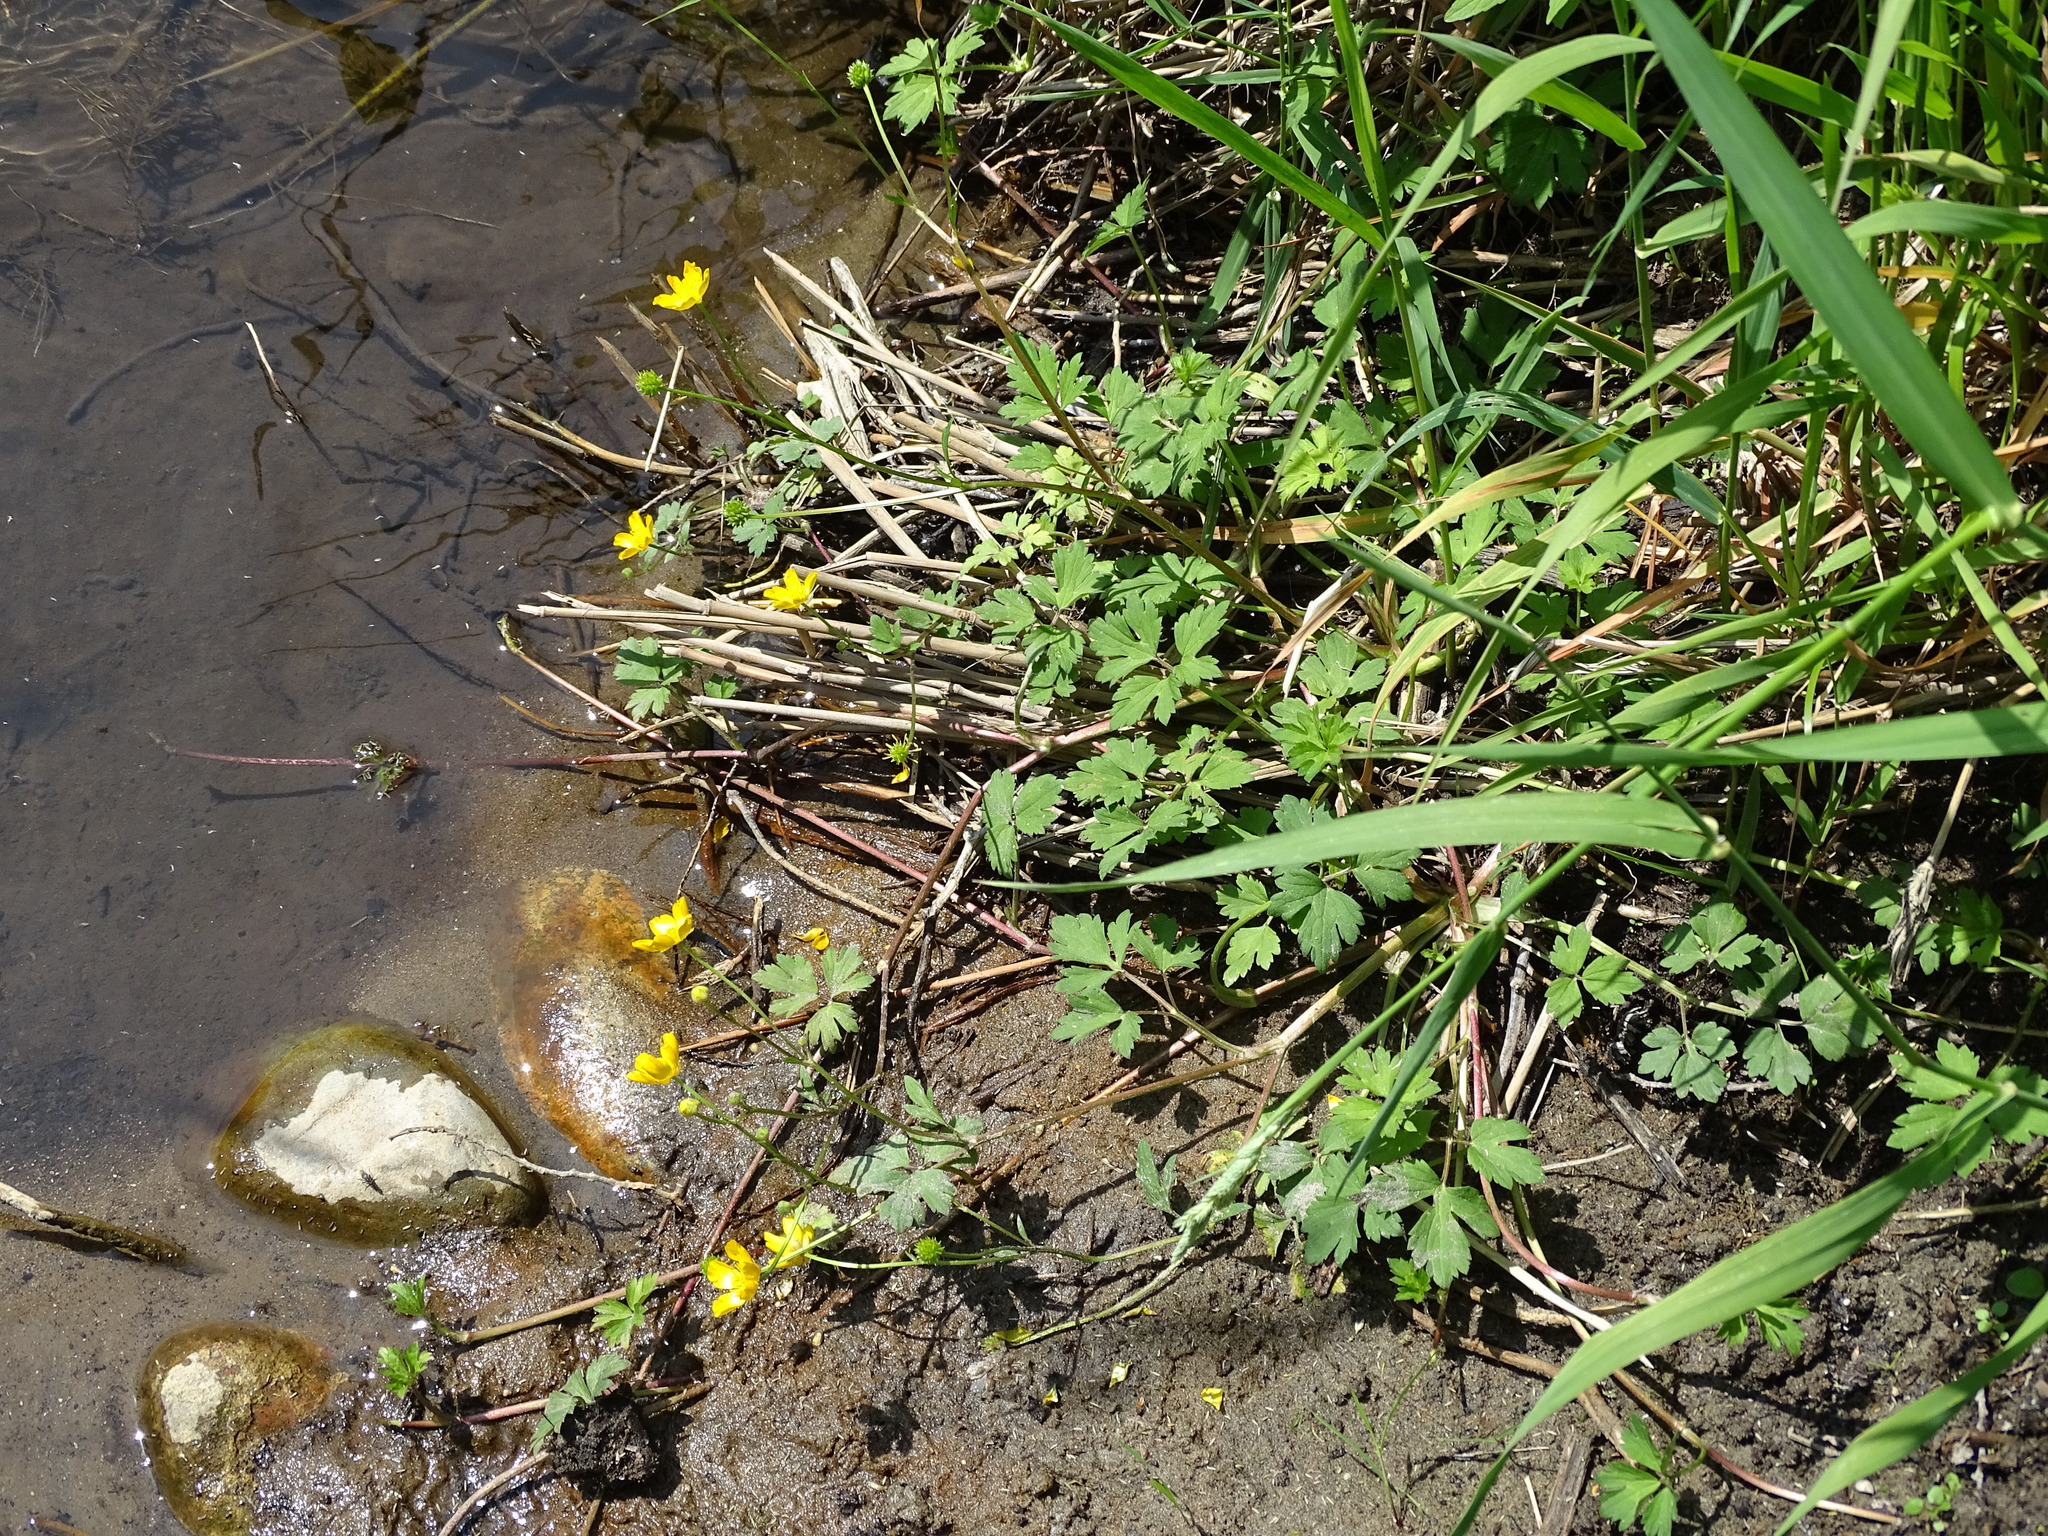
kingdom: Plantae
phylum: Tracheophyta
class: Magnoliopsida
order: Ranunculales
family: Ranunculaceae
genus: Ranunculus
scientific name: Ranunculus hispidus
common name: Bristly buttercup
